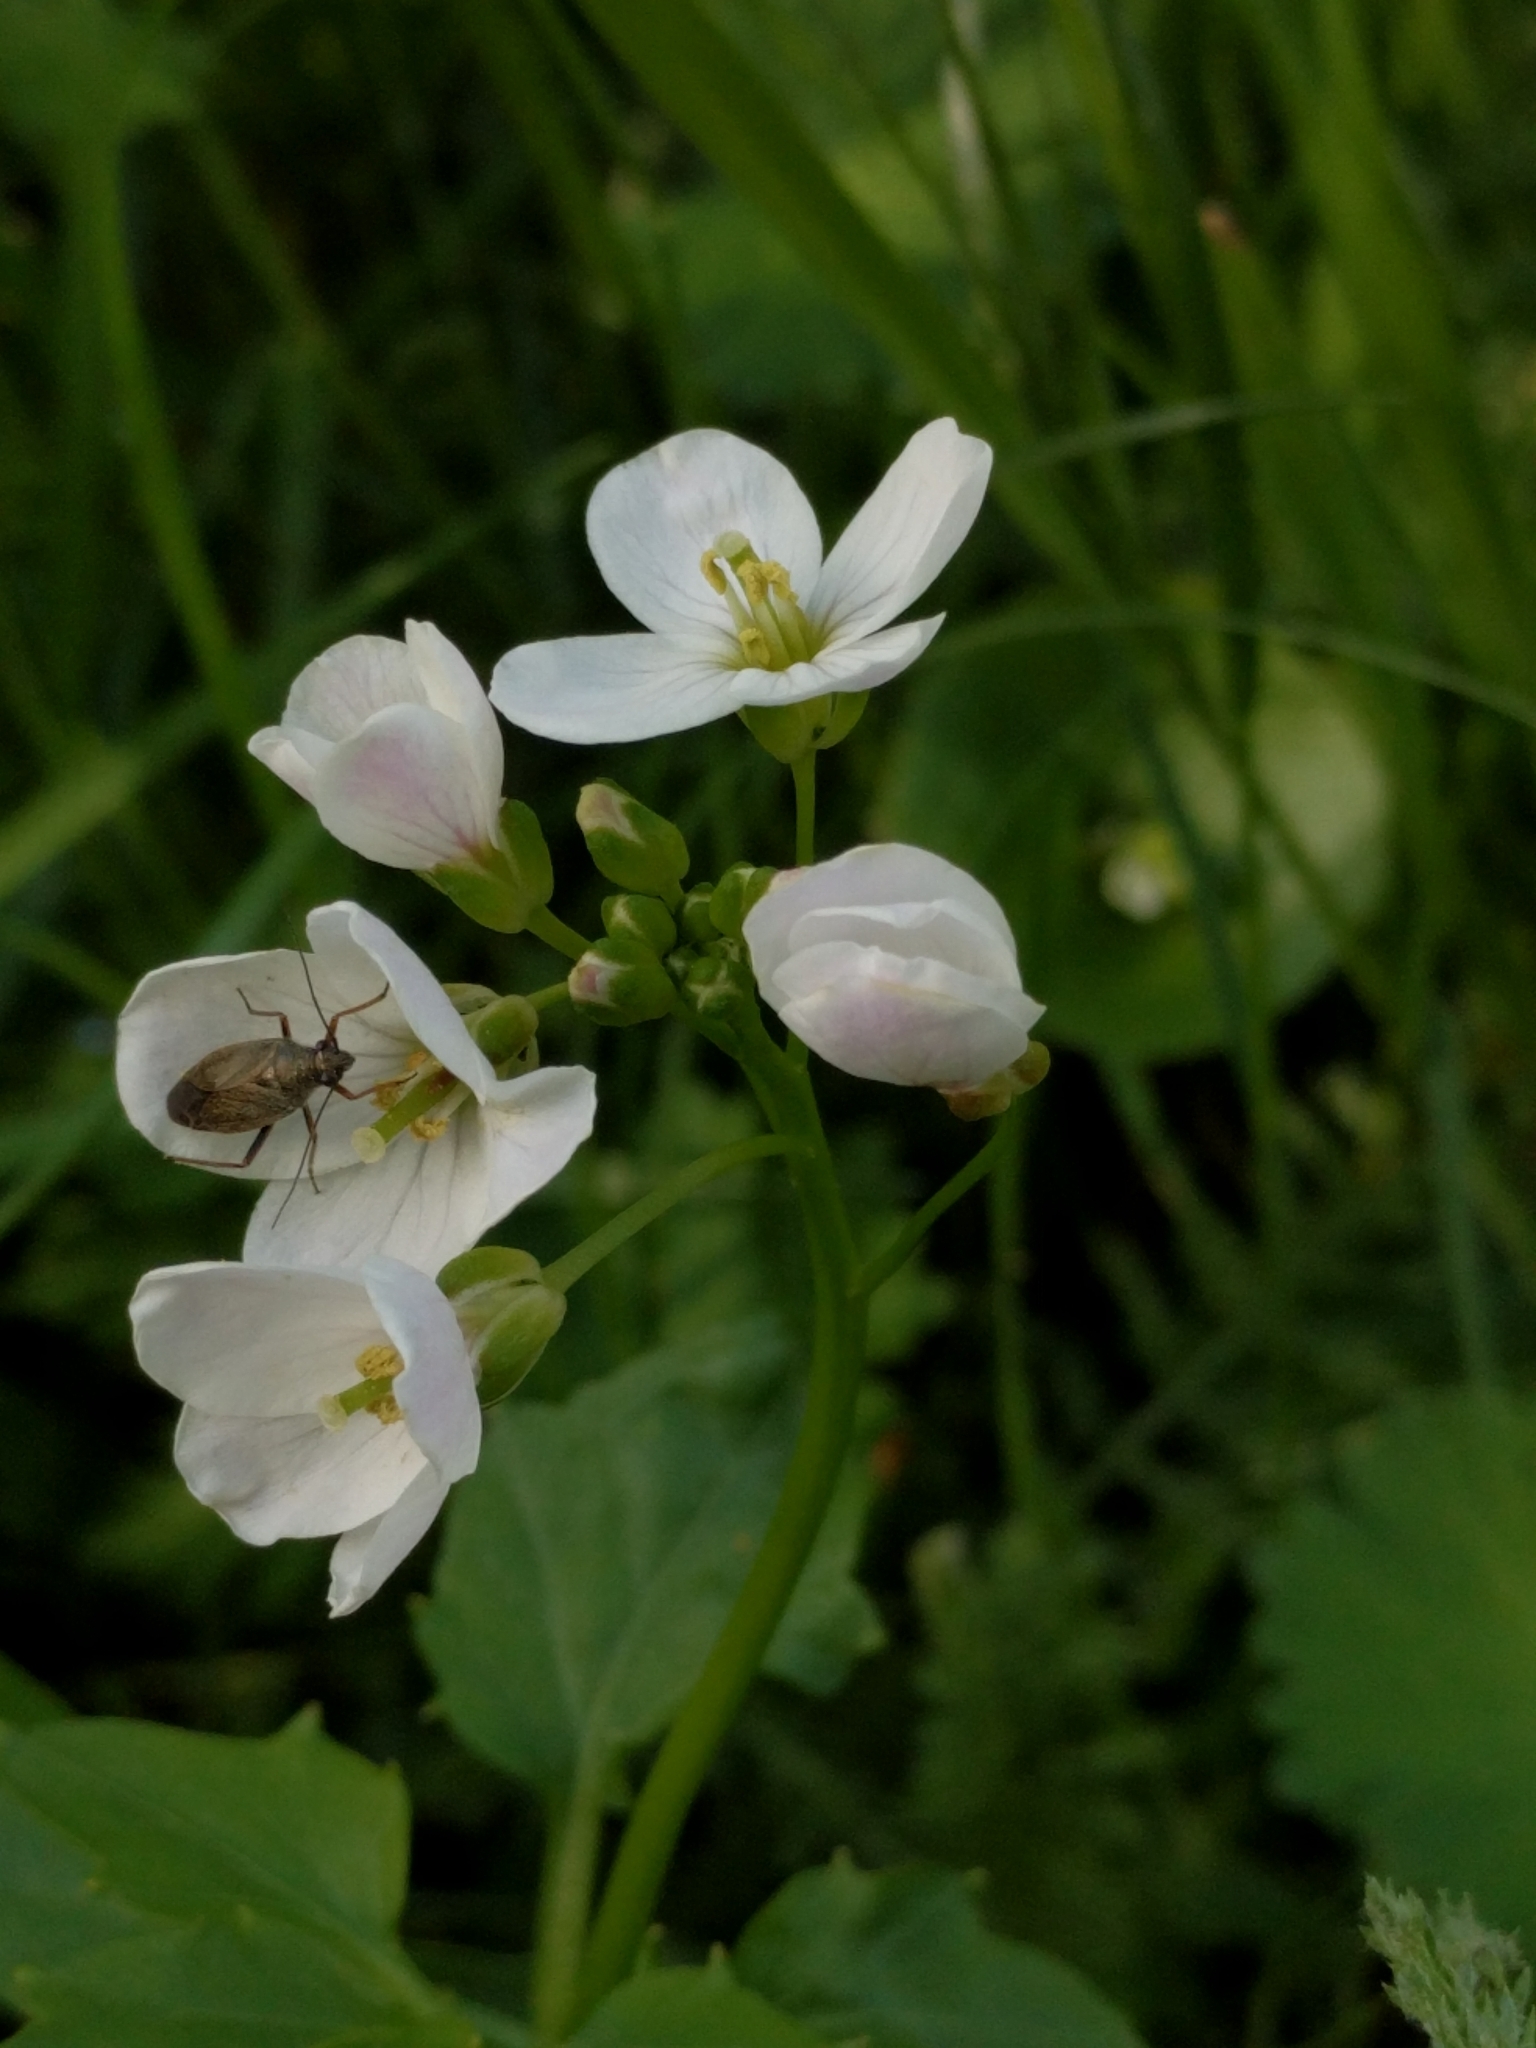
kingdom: Plantae
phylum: Tracheophyta
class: Magnoliopsida
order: Brassicales
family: Brassicaceae
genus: Cardamine
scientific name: Cardamine californica
